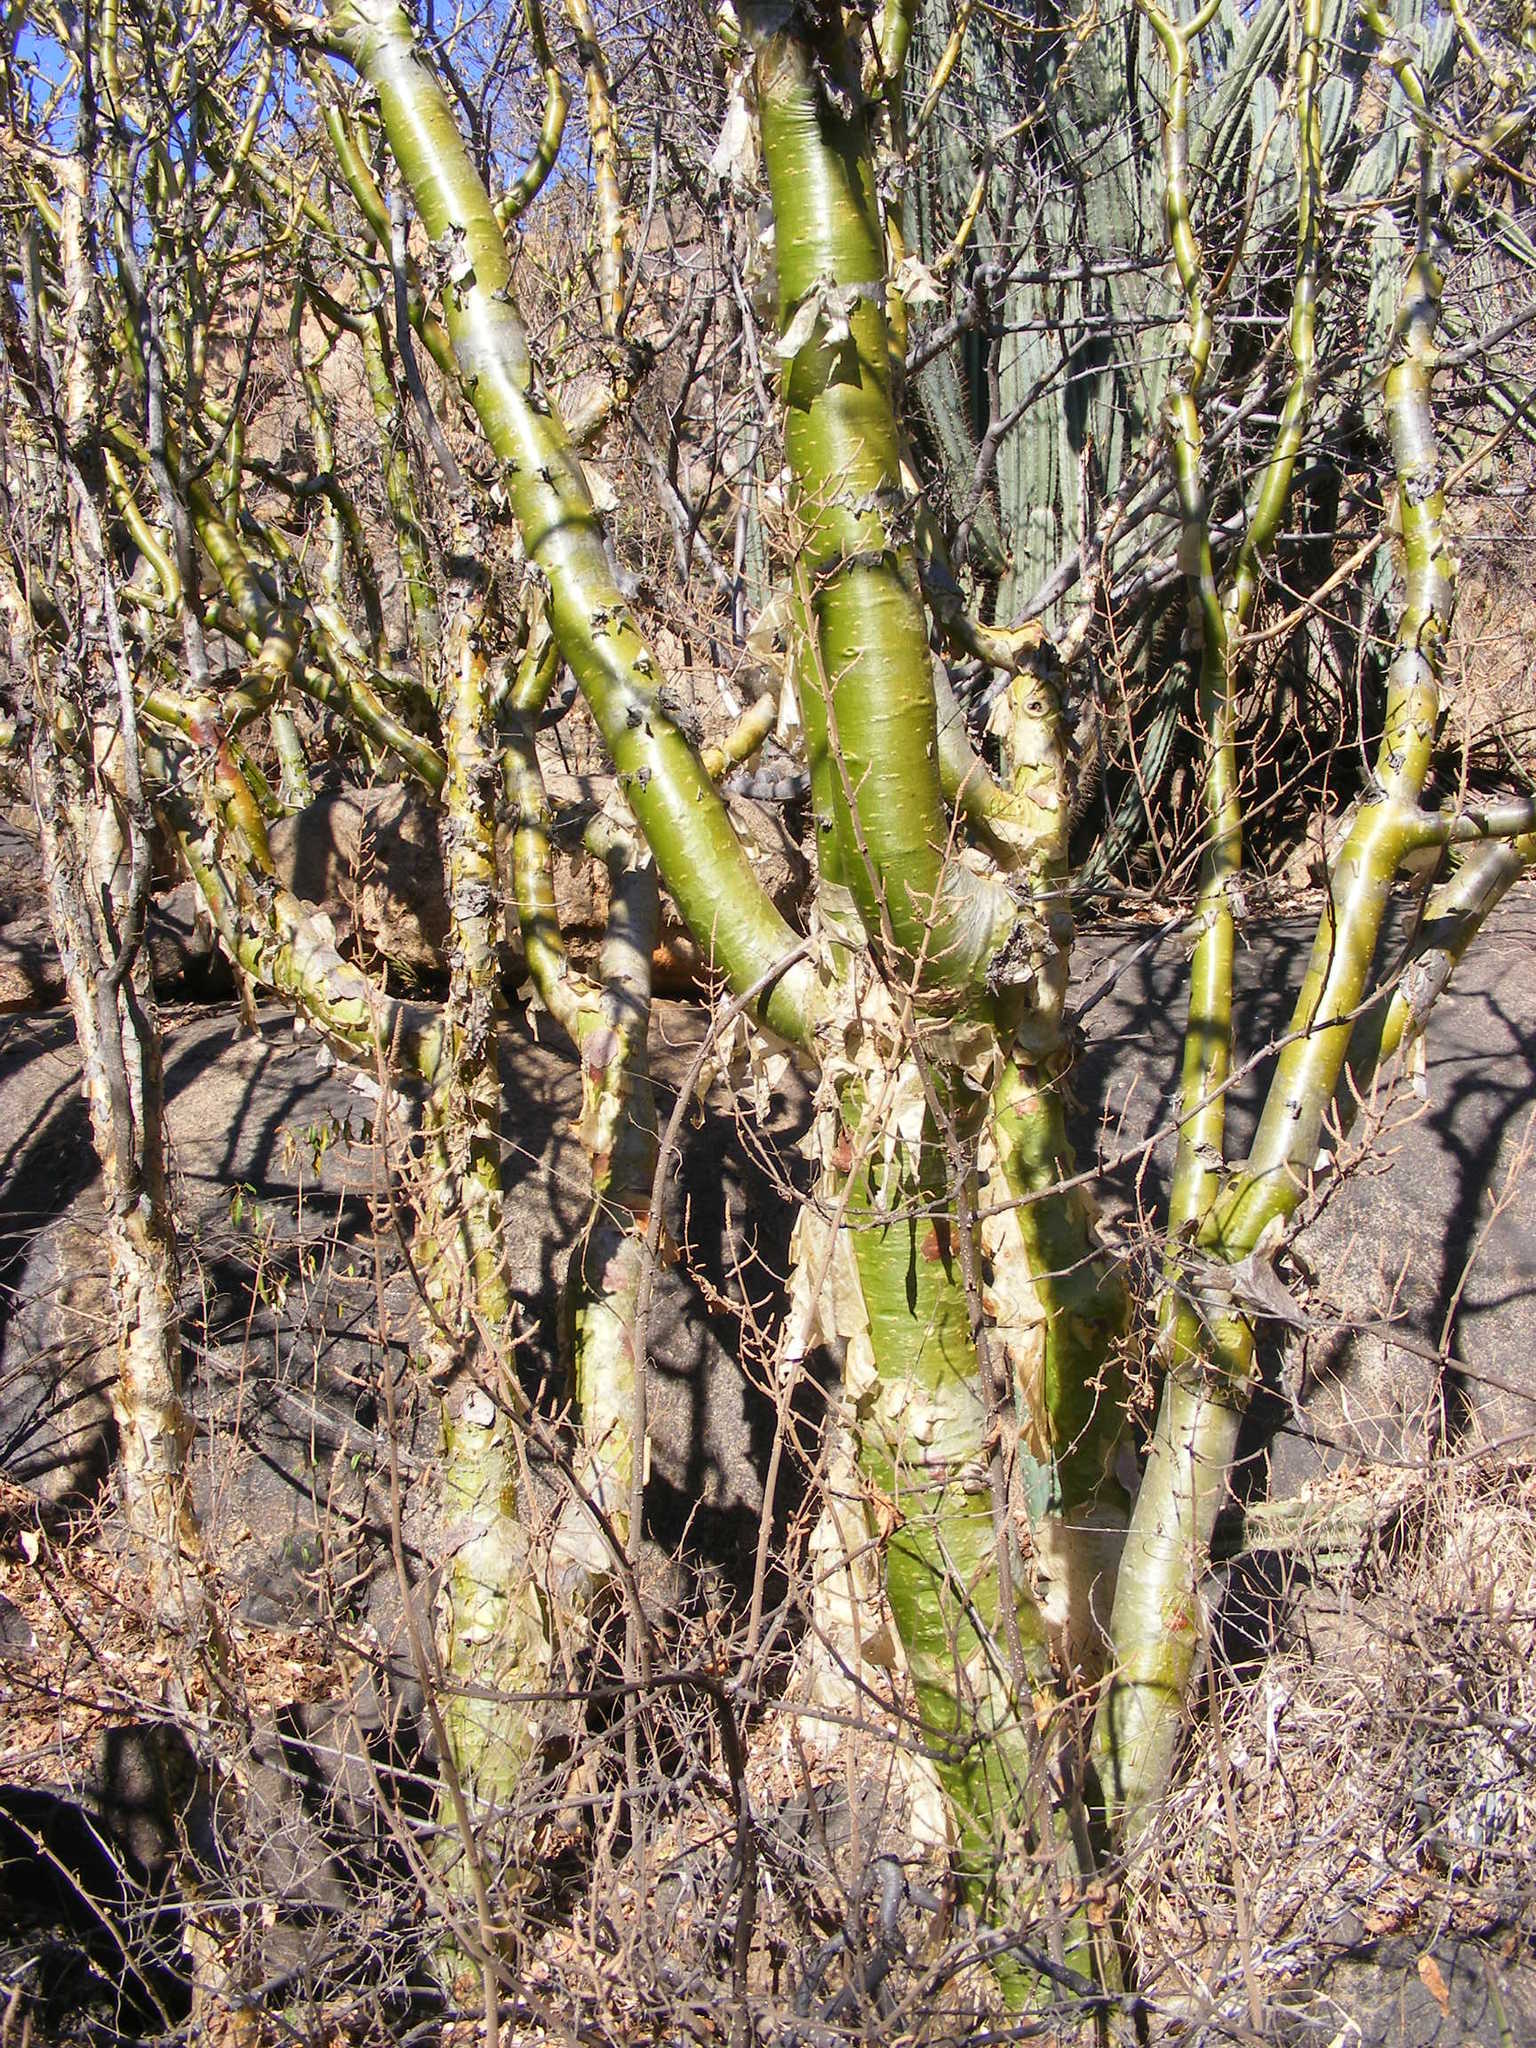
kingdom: Plantae
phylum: Tracheophyta
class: Magnoliopsida
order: Sapindales
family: Burseraceae
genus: Commiphora
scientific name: Commiphora marlothii
